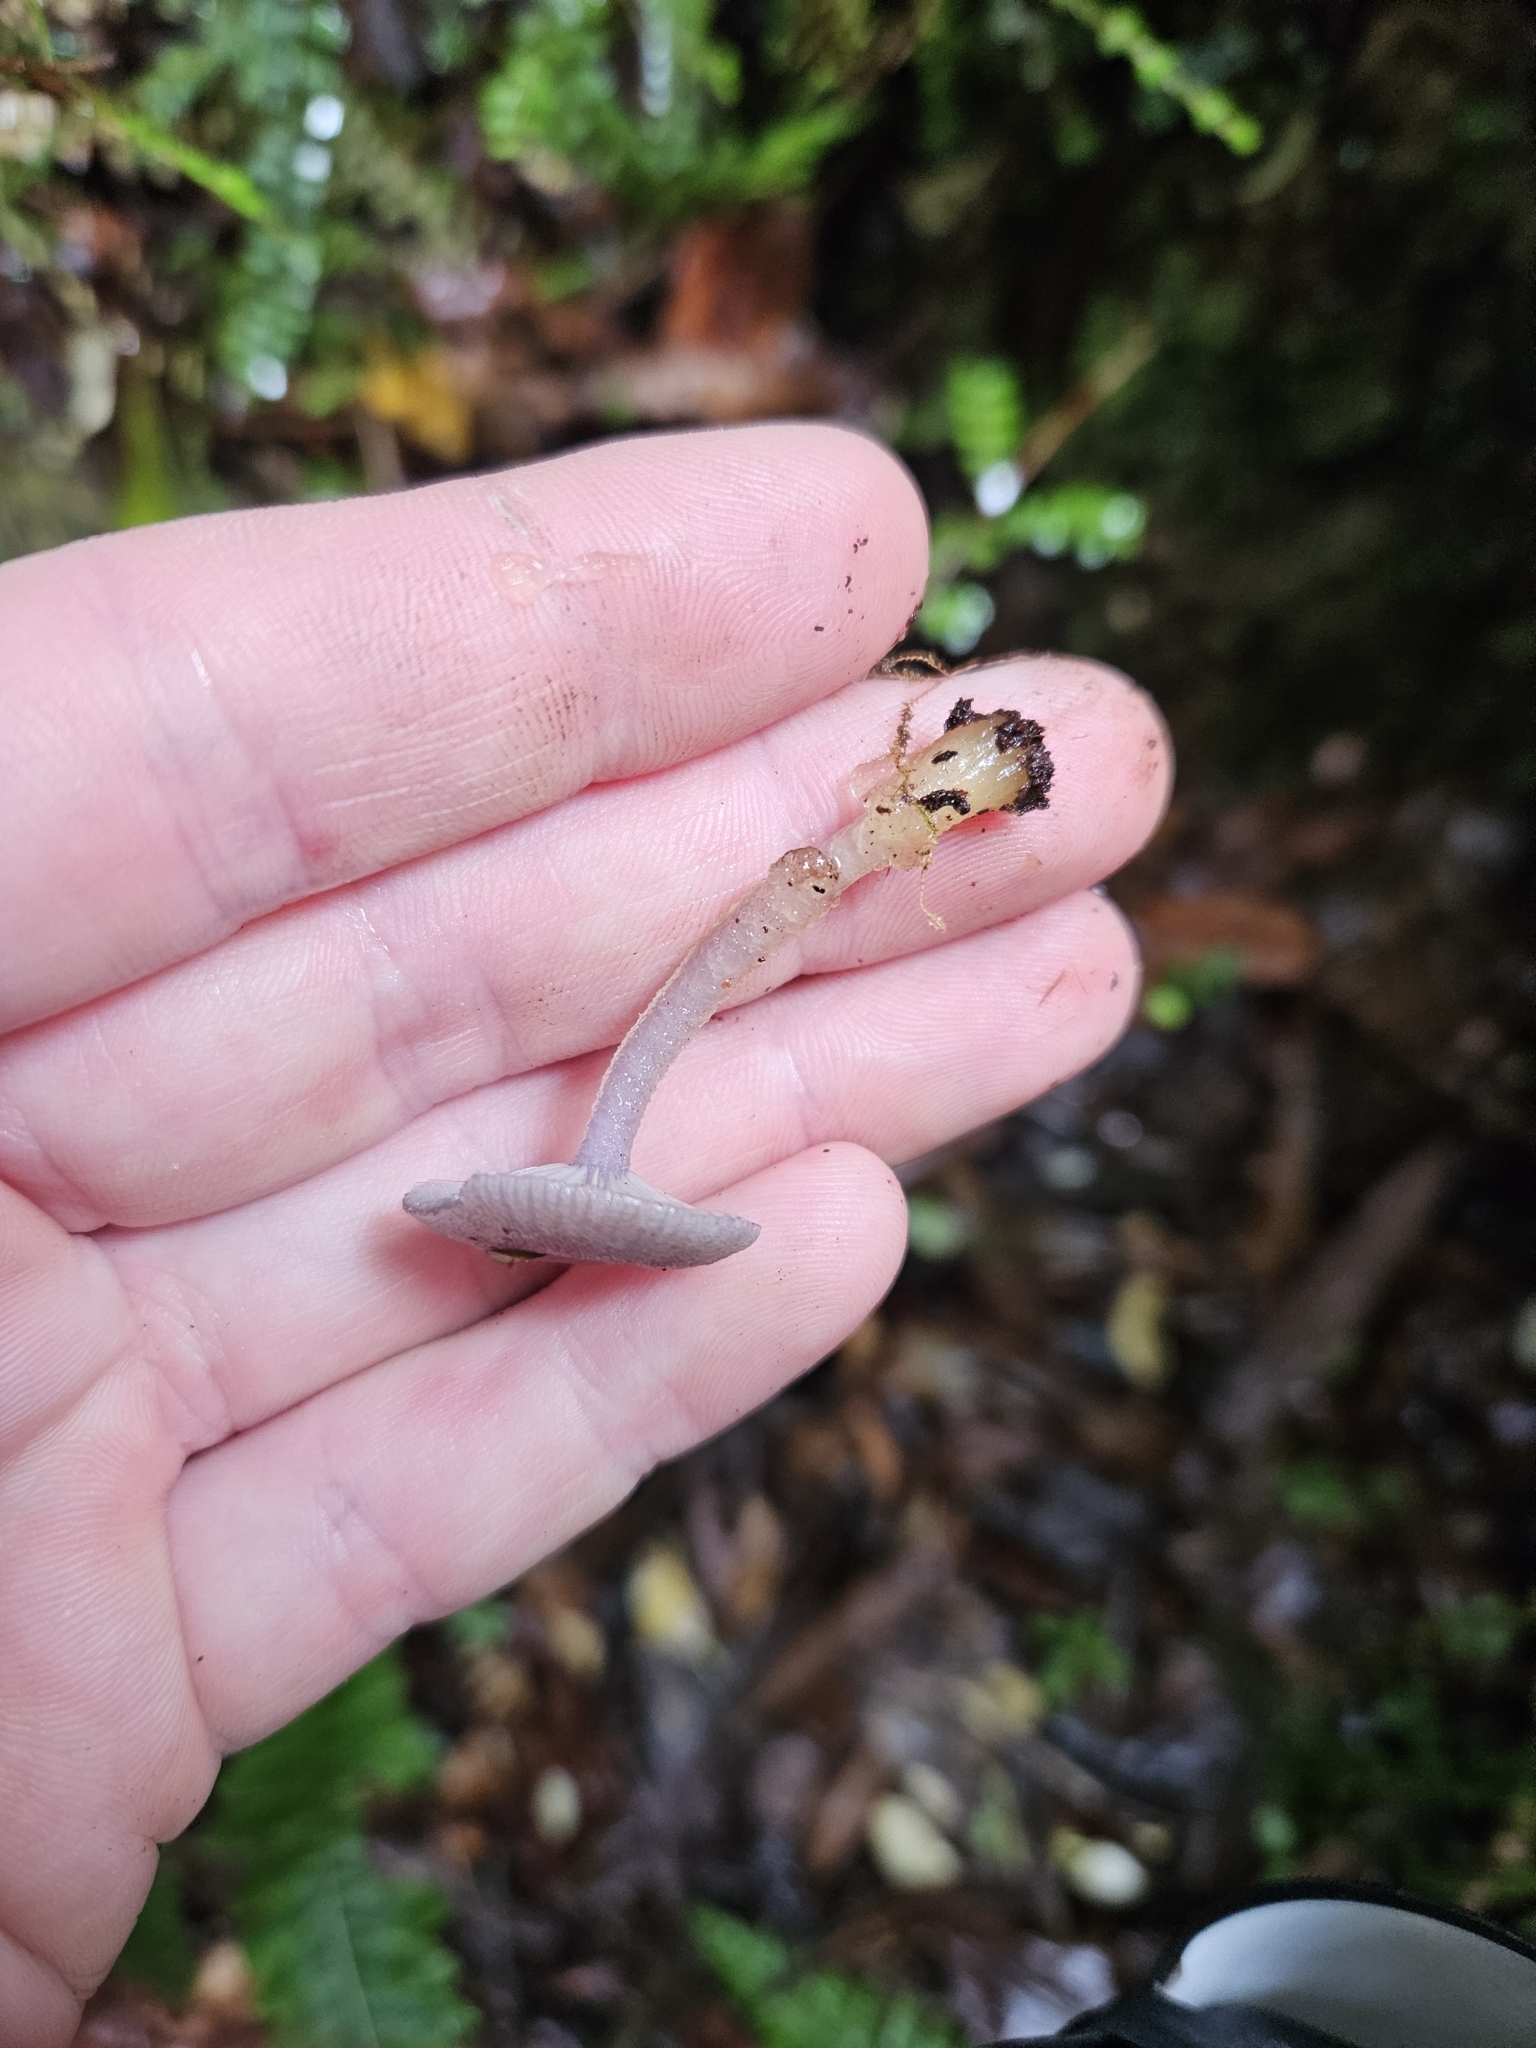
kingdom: Fungi
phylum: Basidiomycota
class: Agaricomycetes
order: Agaricales
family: Hygrophoraceae
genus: Gliophorus
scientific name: Gliophorus lilacipes
